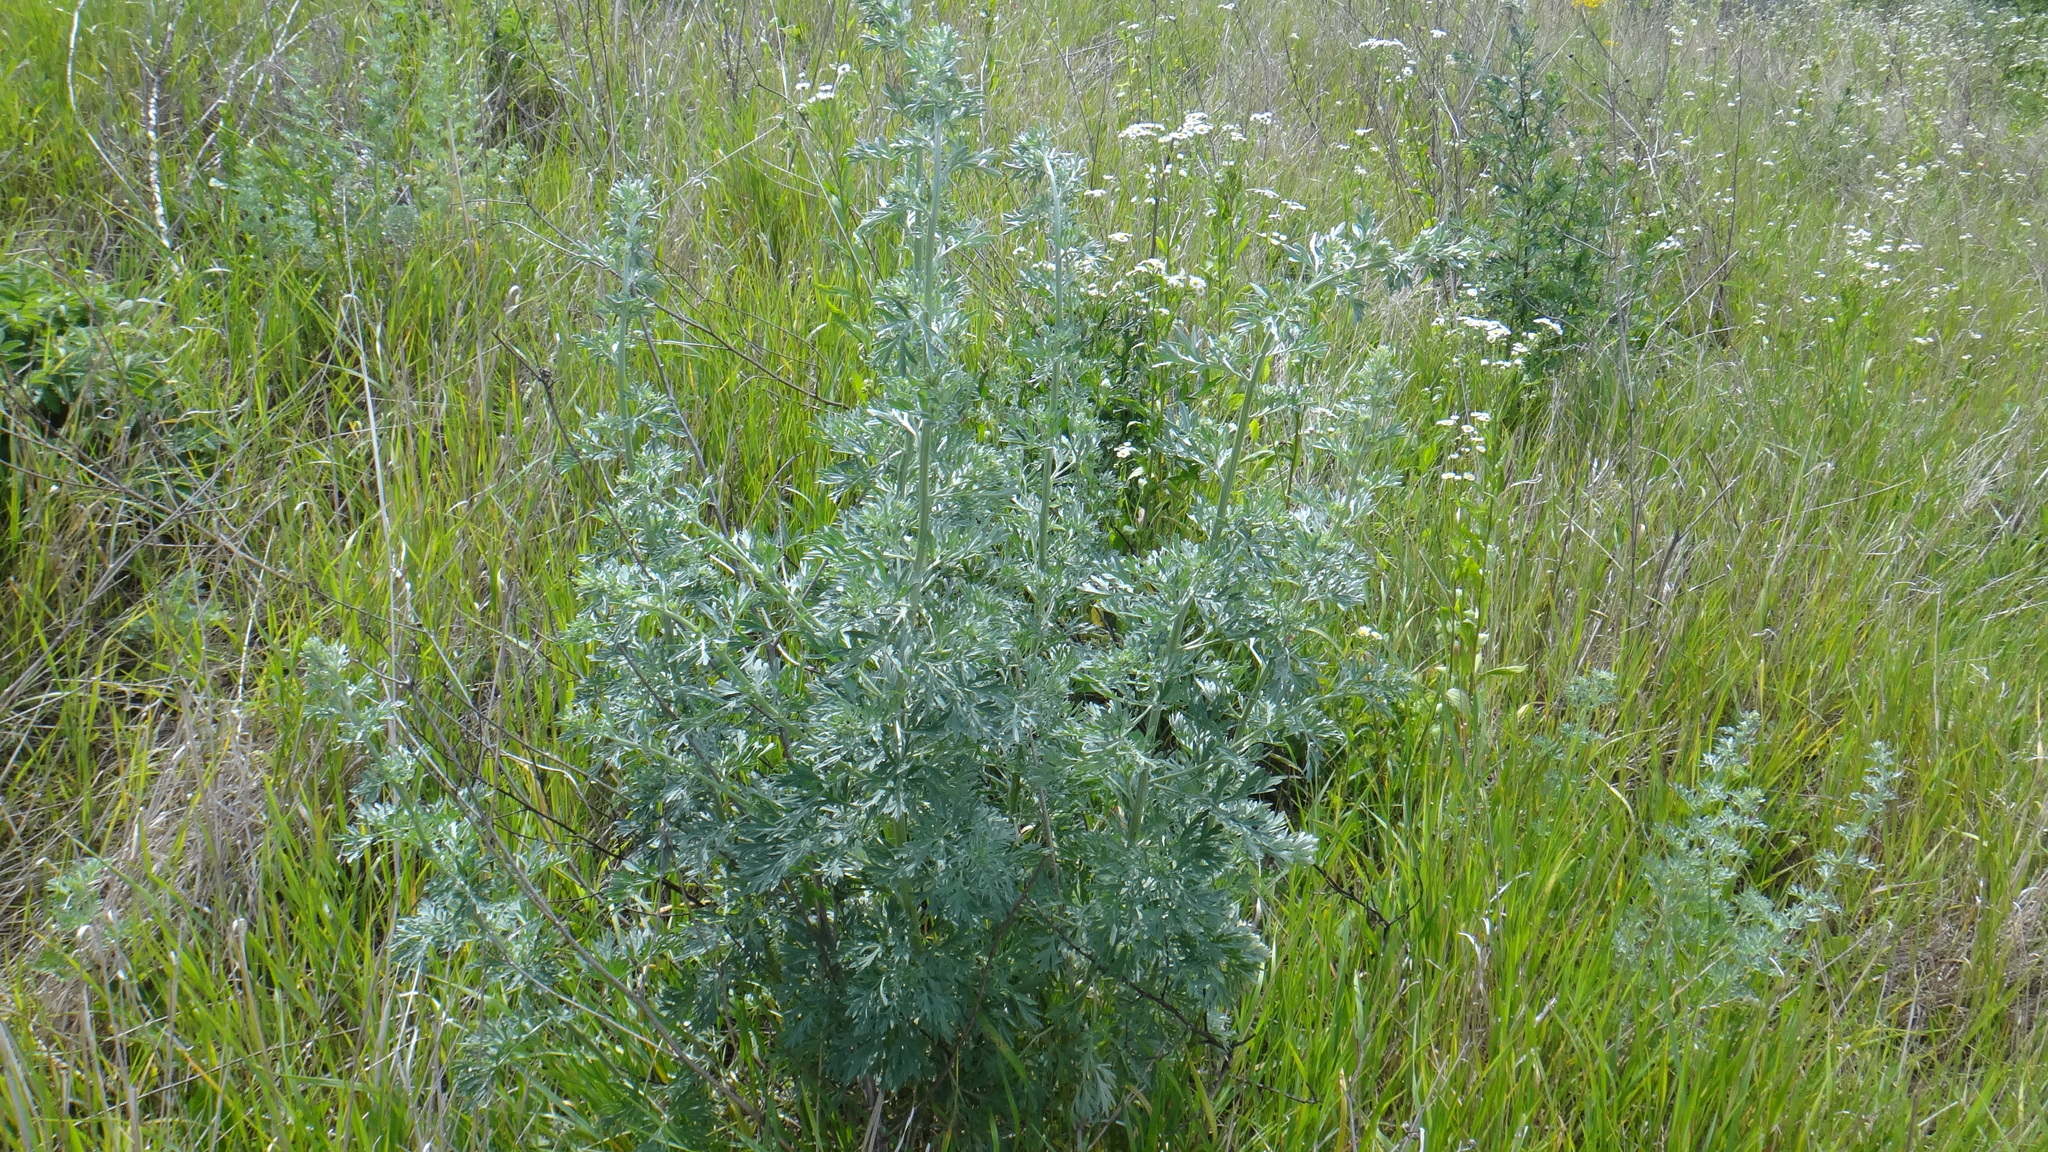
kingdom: Plantae
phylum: Tracheophyta
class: Magnoliopsida
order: Asterales
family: Asteraceae
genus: Artemisia
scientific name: Artemisia absinthium
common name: Wormwood
